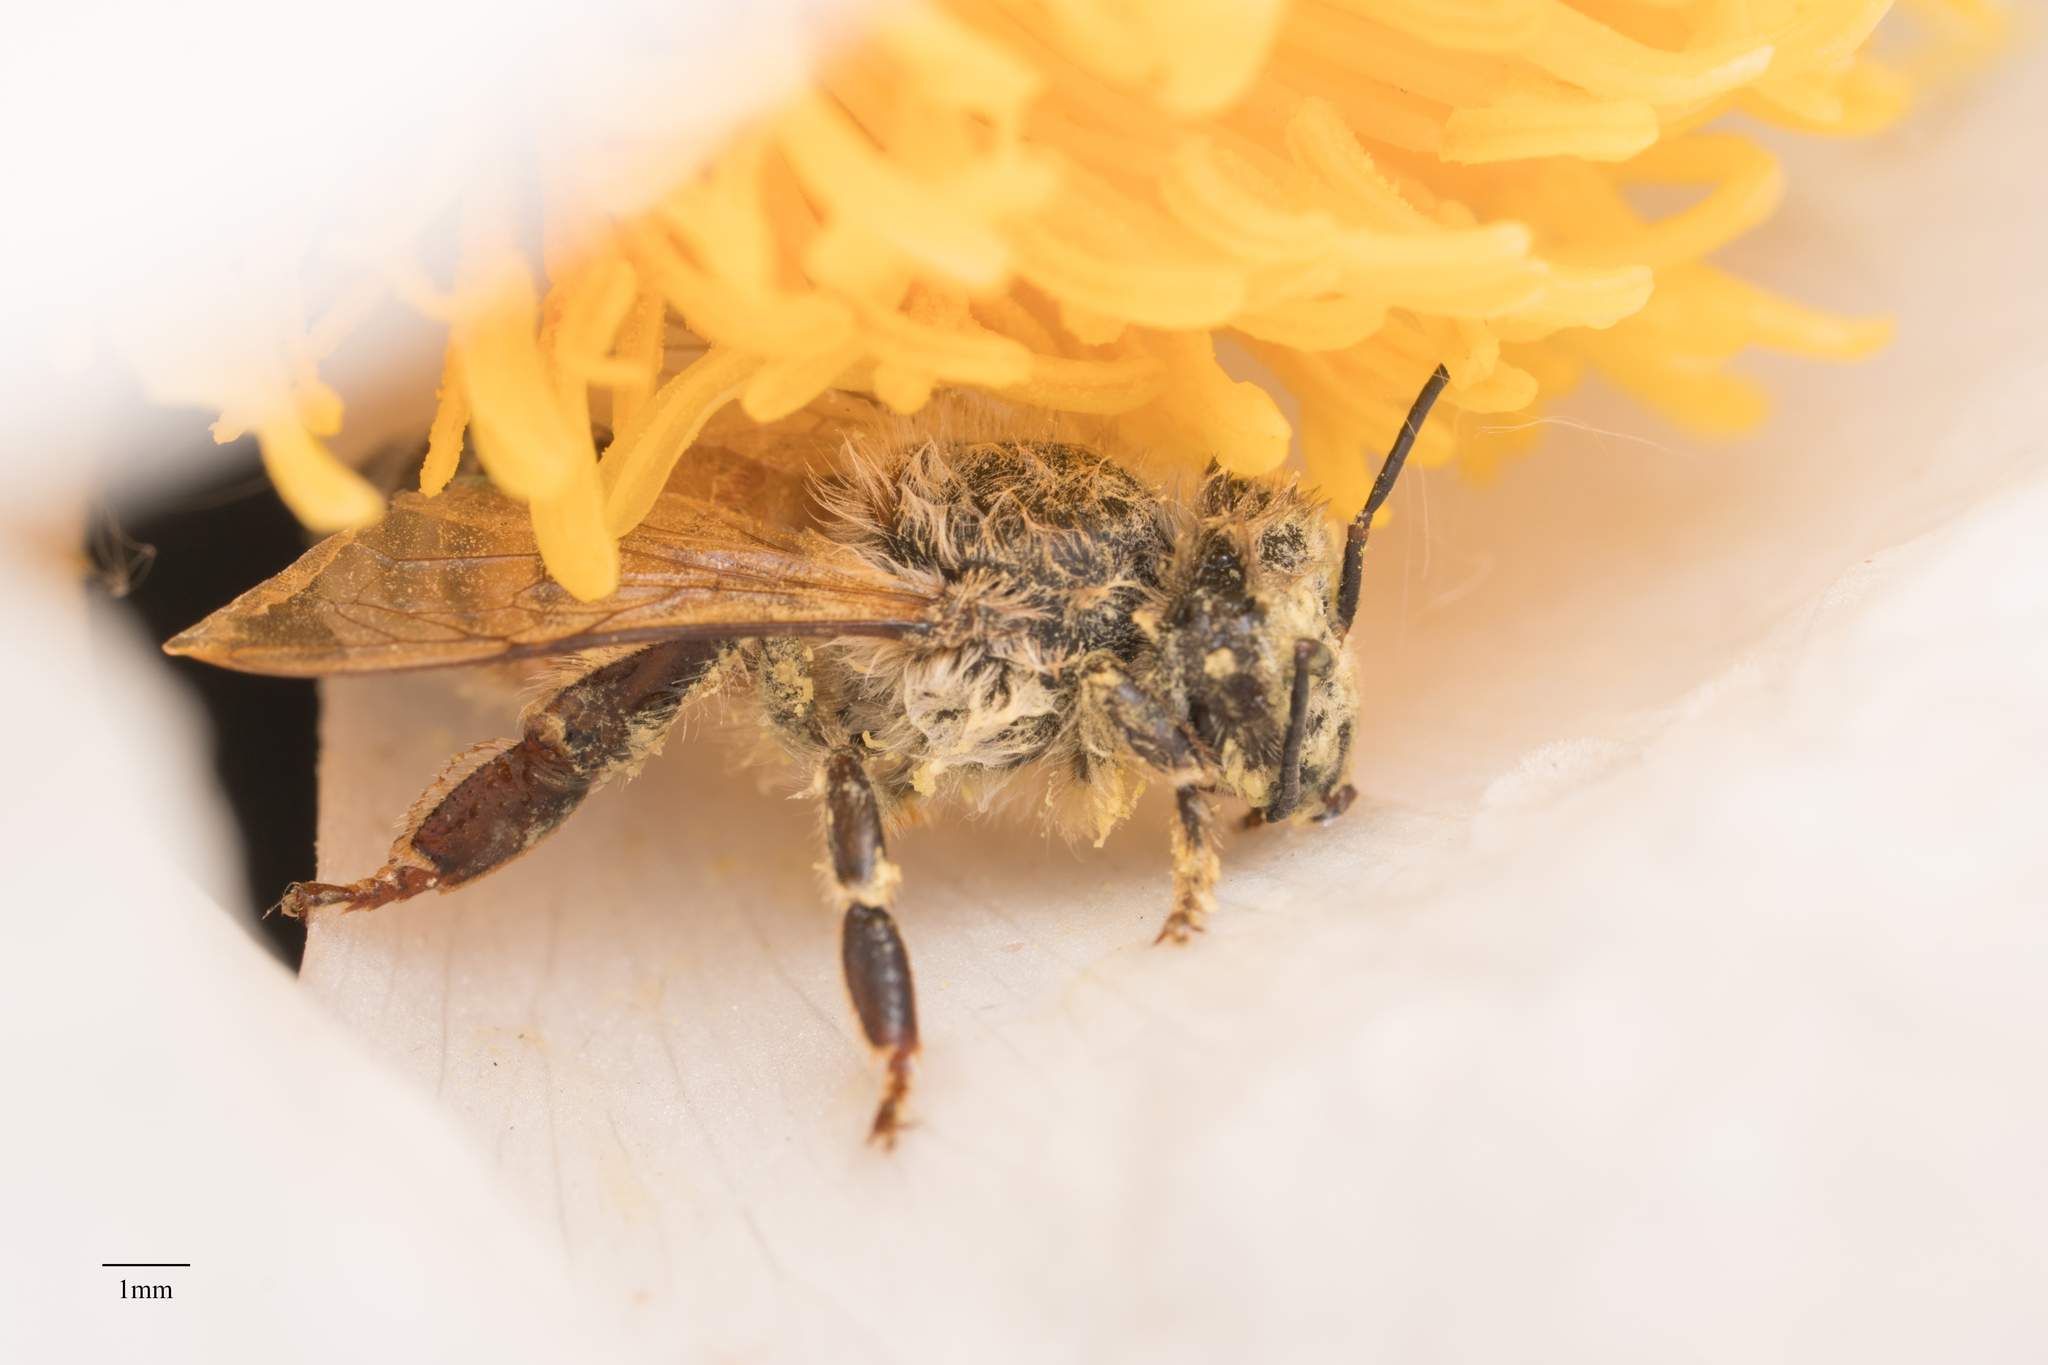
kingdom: Animalia
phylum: Arthropoda
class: Insecta
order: Hymenoptera
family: Apidae
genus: Apis
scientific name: Apis mellifera
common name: Honey bee
